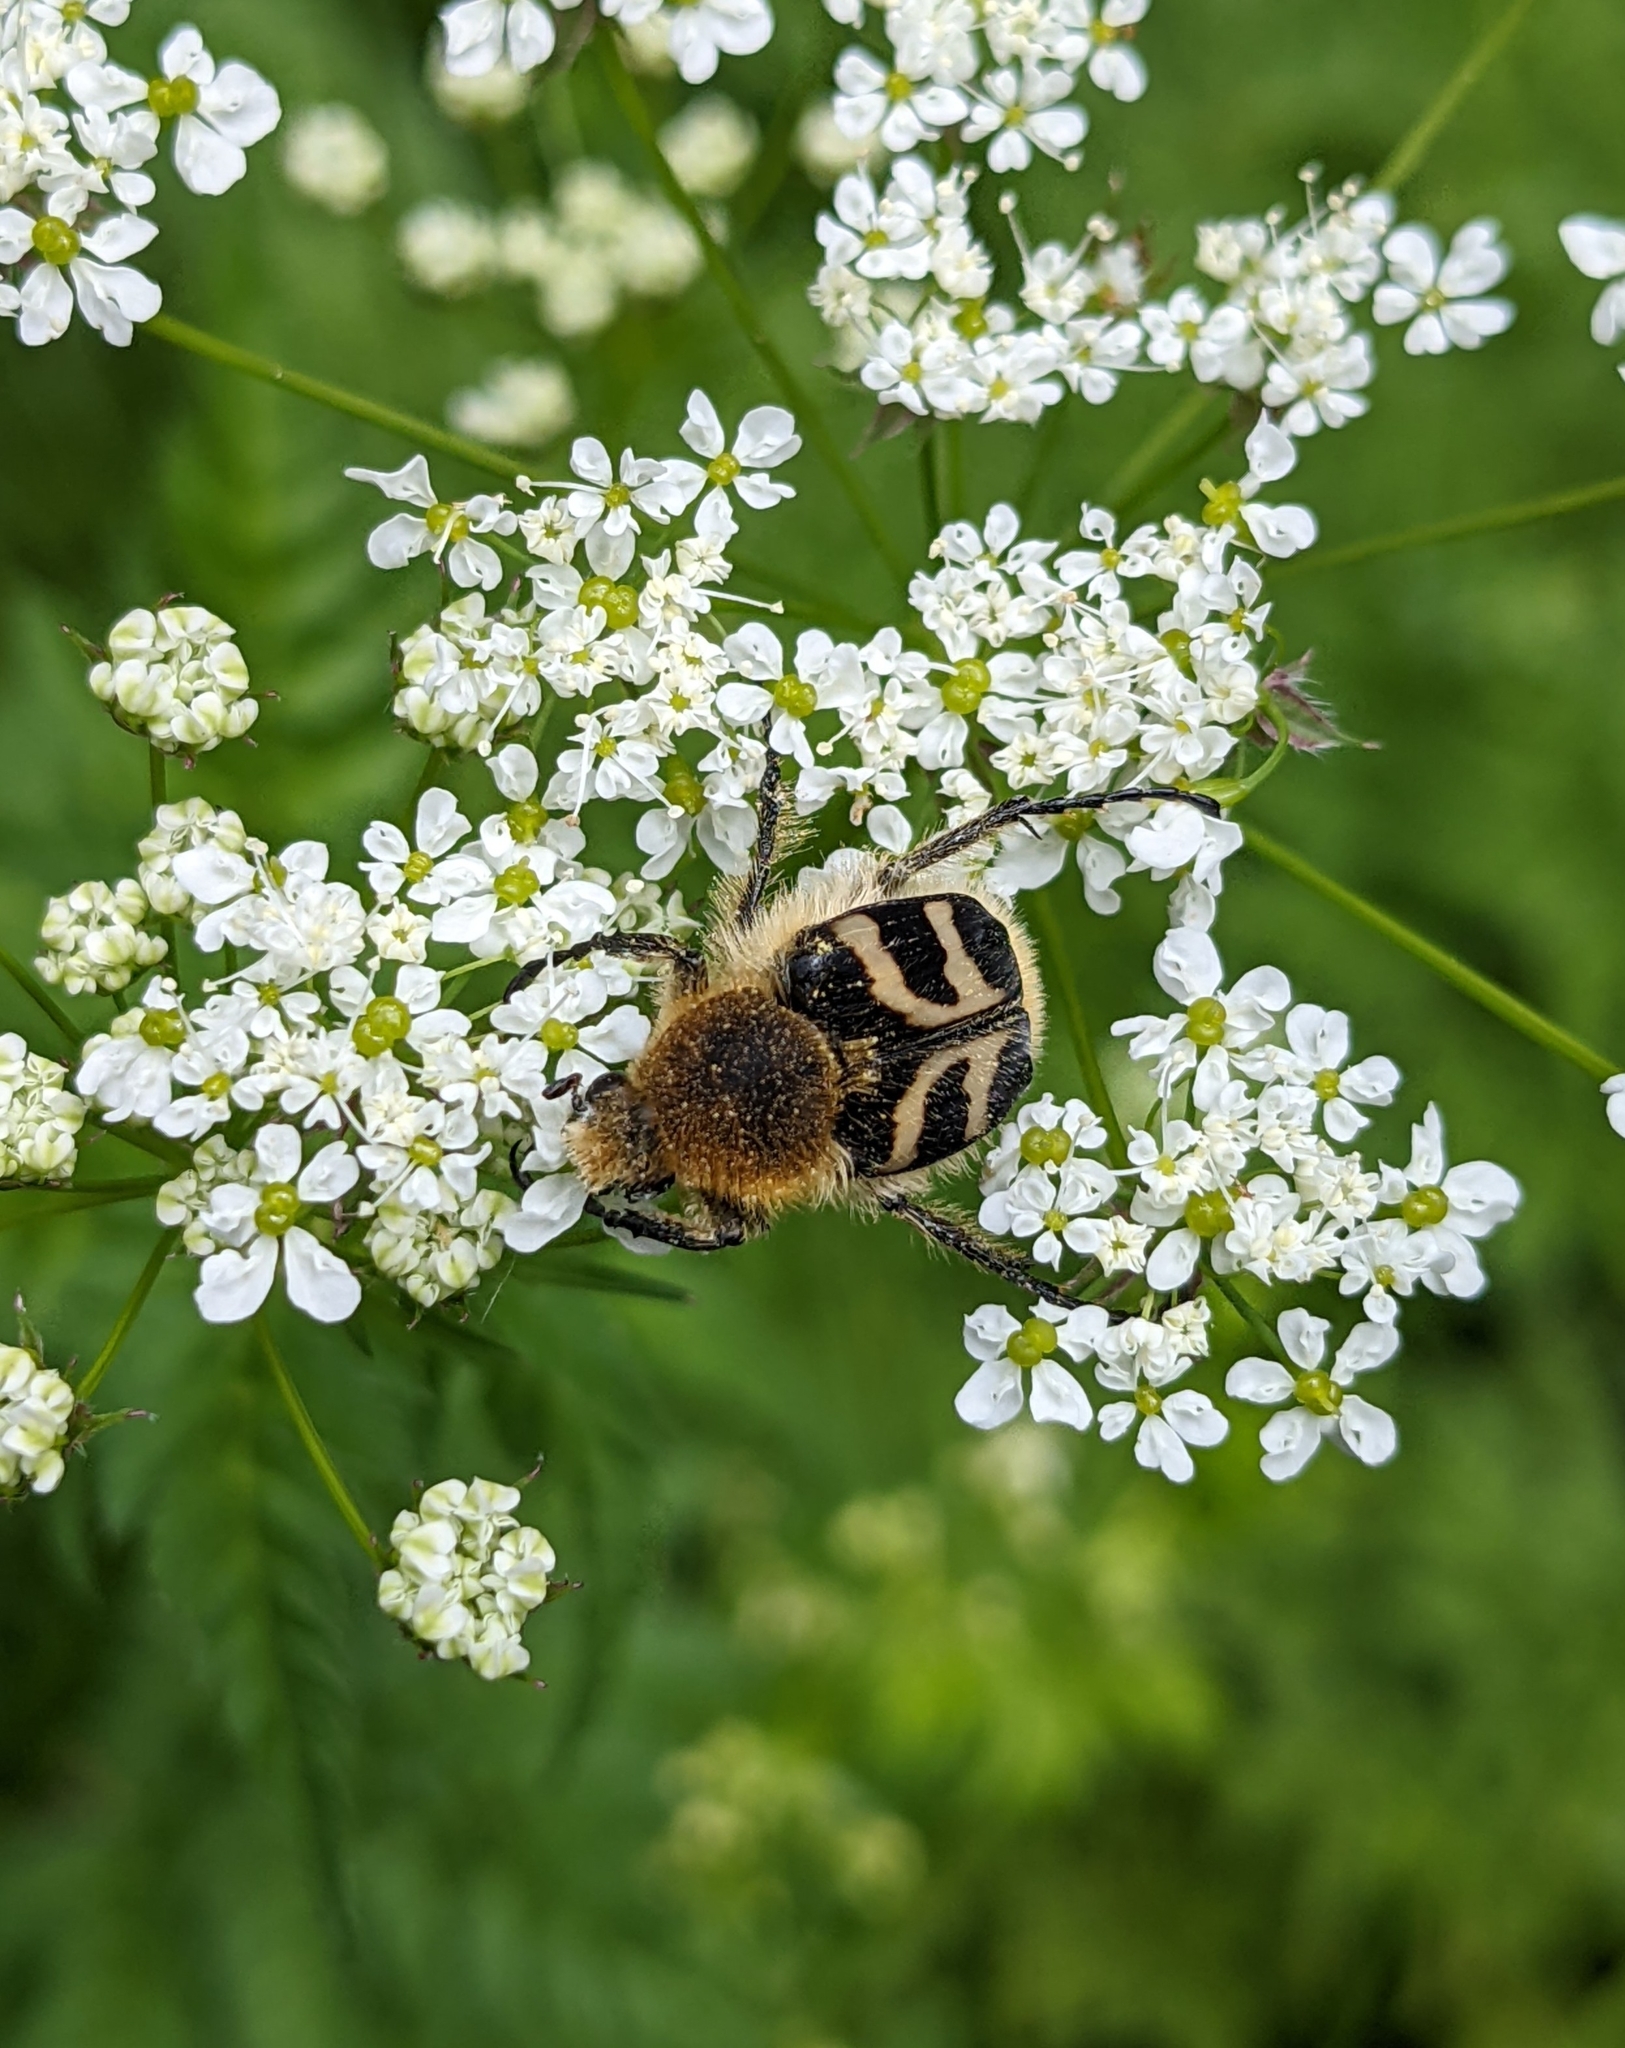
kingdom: Animalia
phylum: Arthropoda
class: Insecta
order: Coleoptera
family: Scarabaeidae
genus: Trichius
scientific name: Trichius fasciatus
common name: Bee beetle
